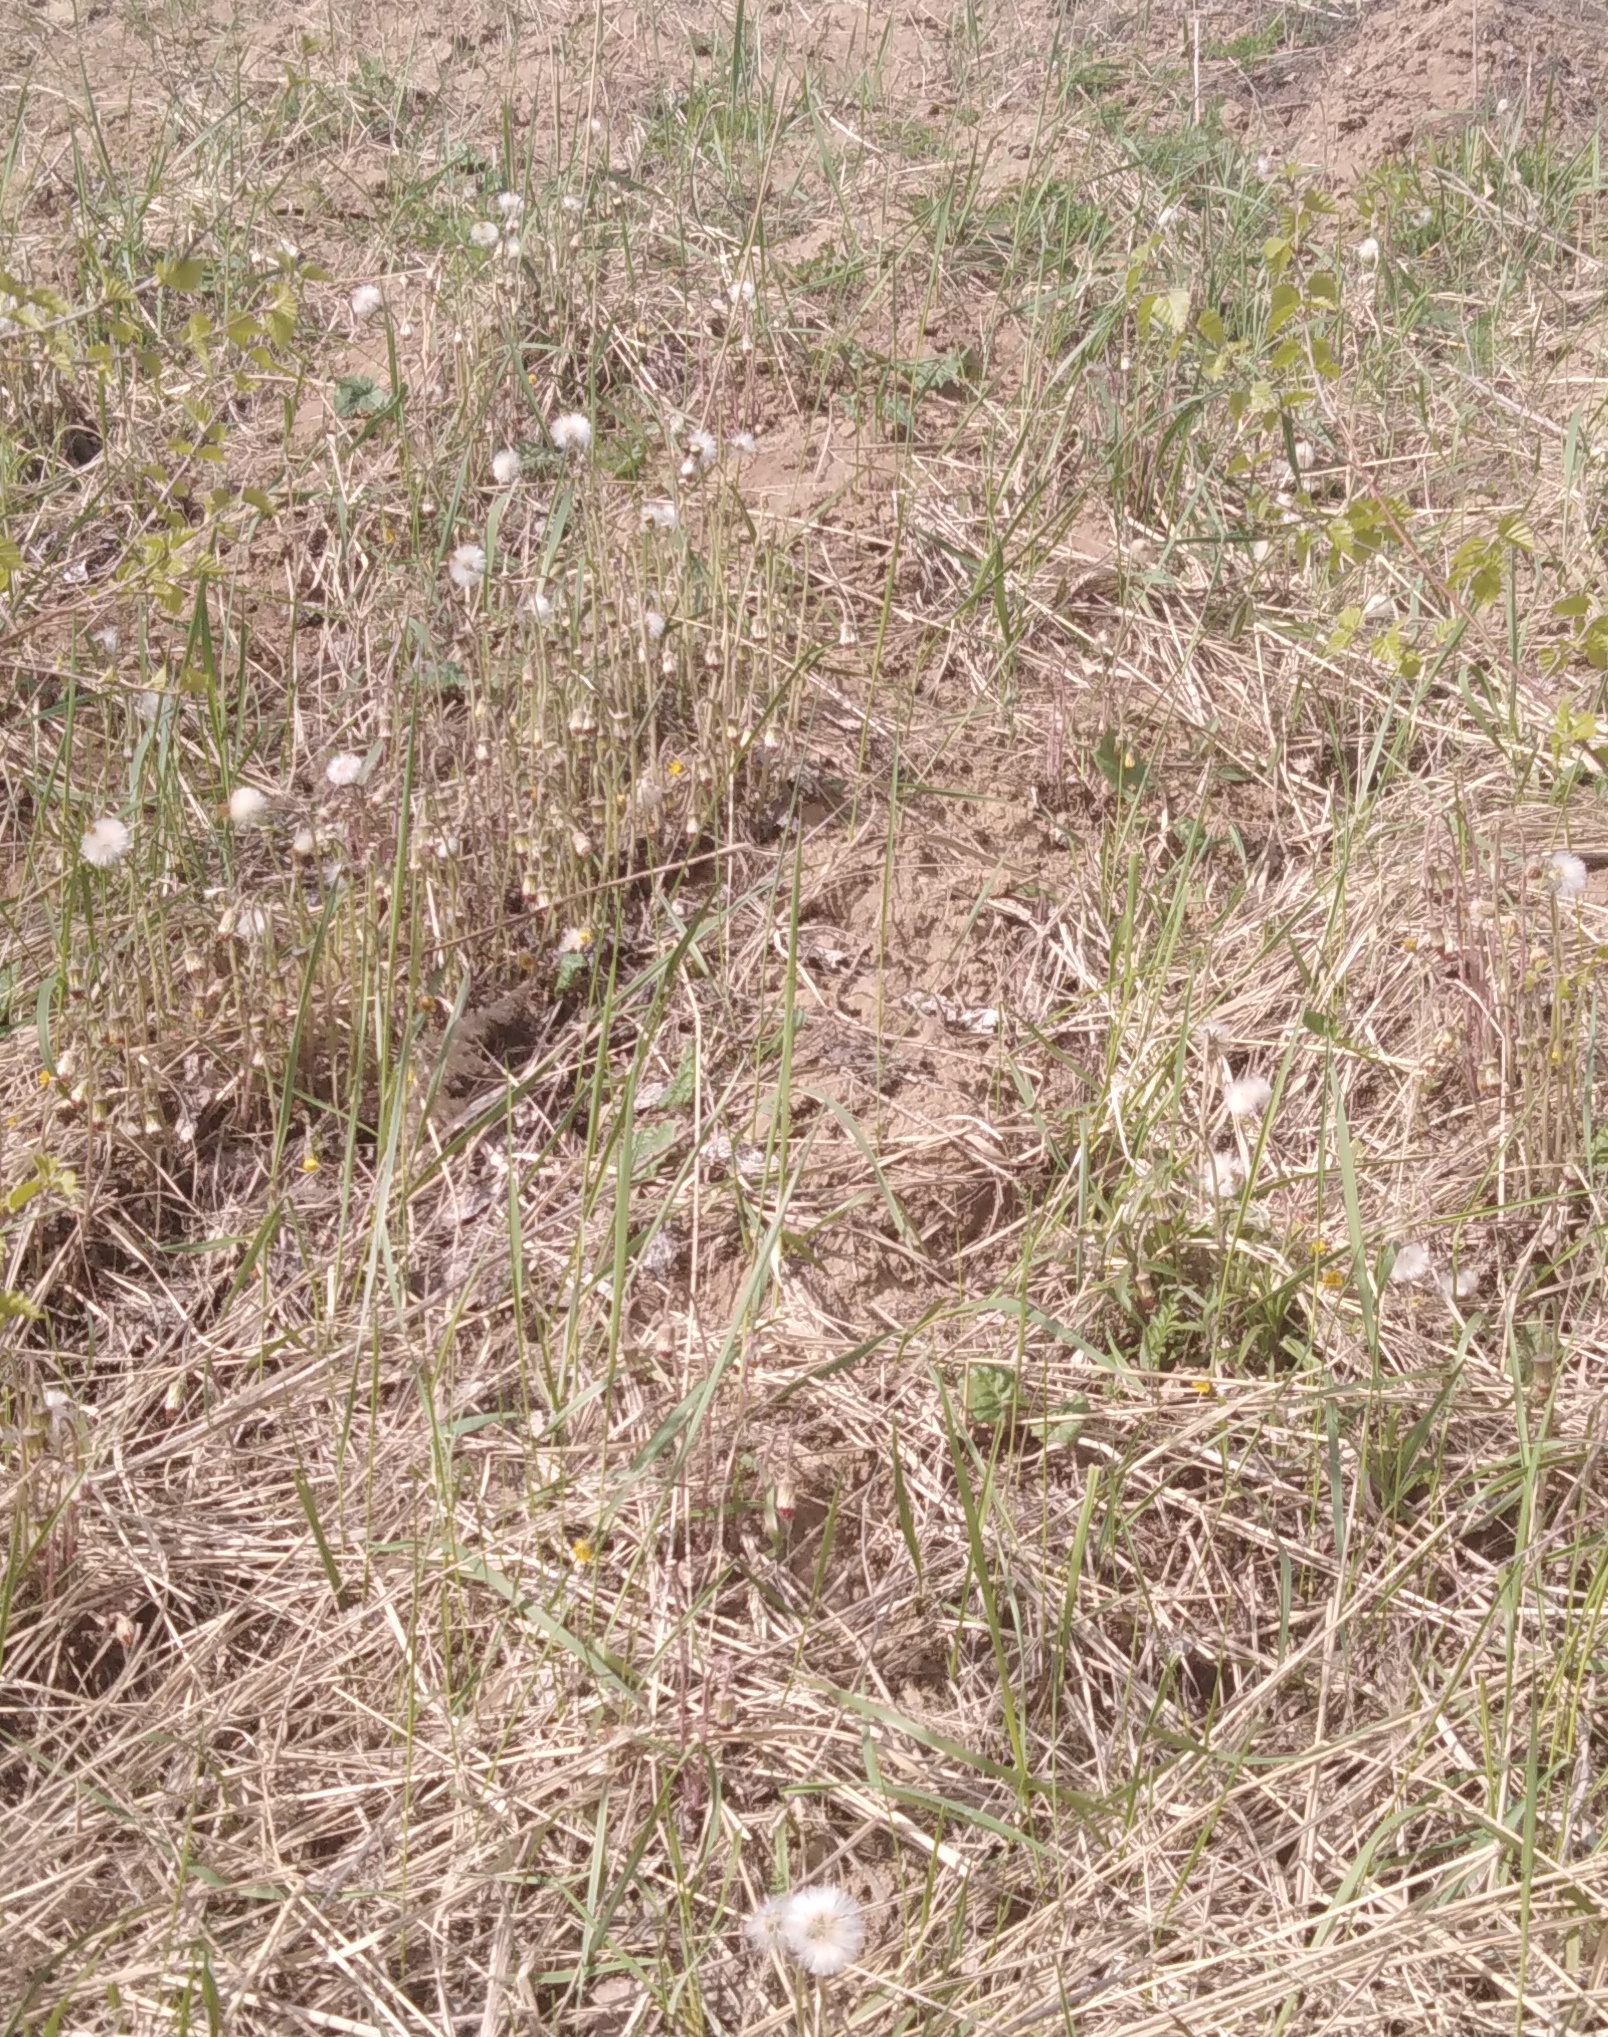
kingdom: Plantae
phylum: Tracheophyta
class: Magnoliopsida
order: Asterales
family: Asteraceae
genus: Tussilago
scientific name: Tussilago farfara
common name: Coltsfoot
